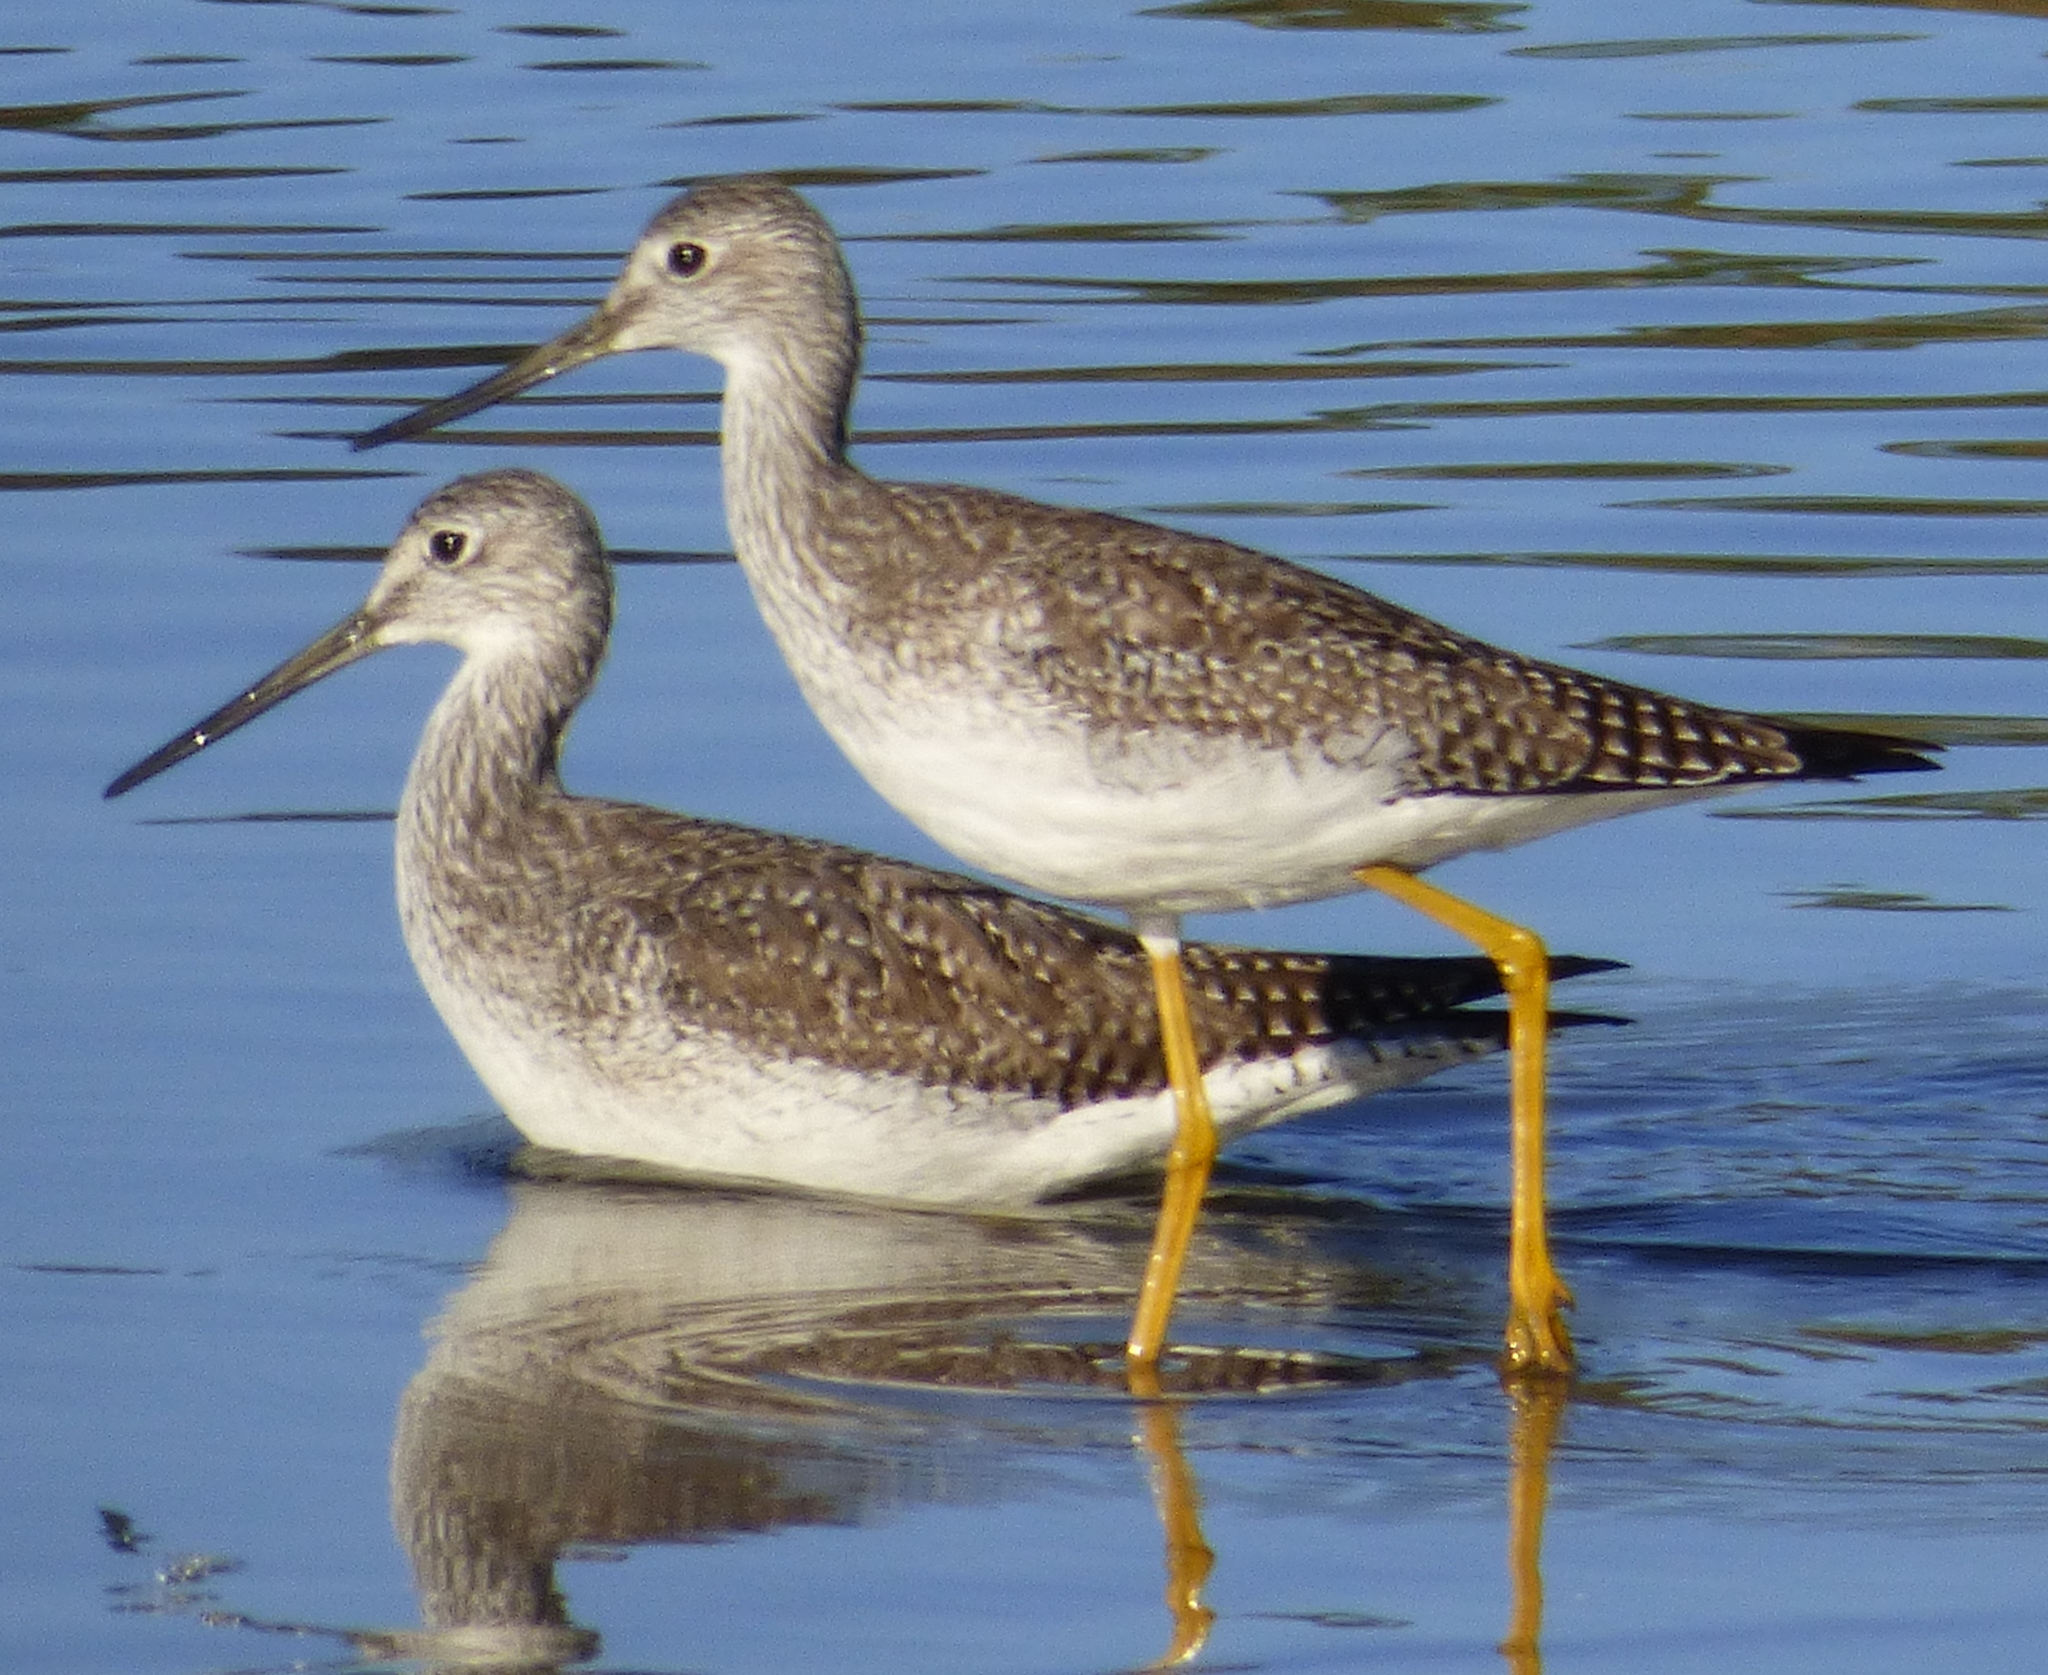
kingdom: Animalia
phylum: Chordata
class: Aves
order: Charadriiformes
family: Scolopacidae
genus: Tringa
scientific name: Tringa melanoleuca
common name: Greater yellowlegs
